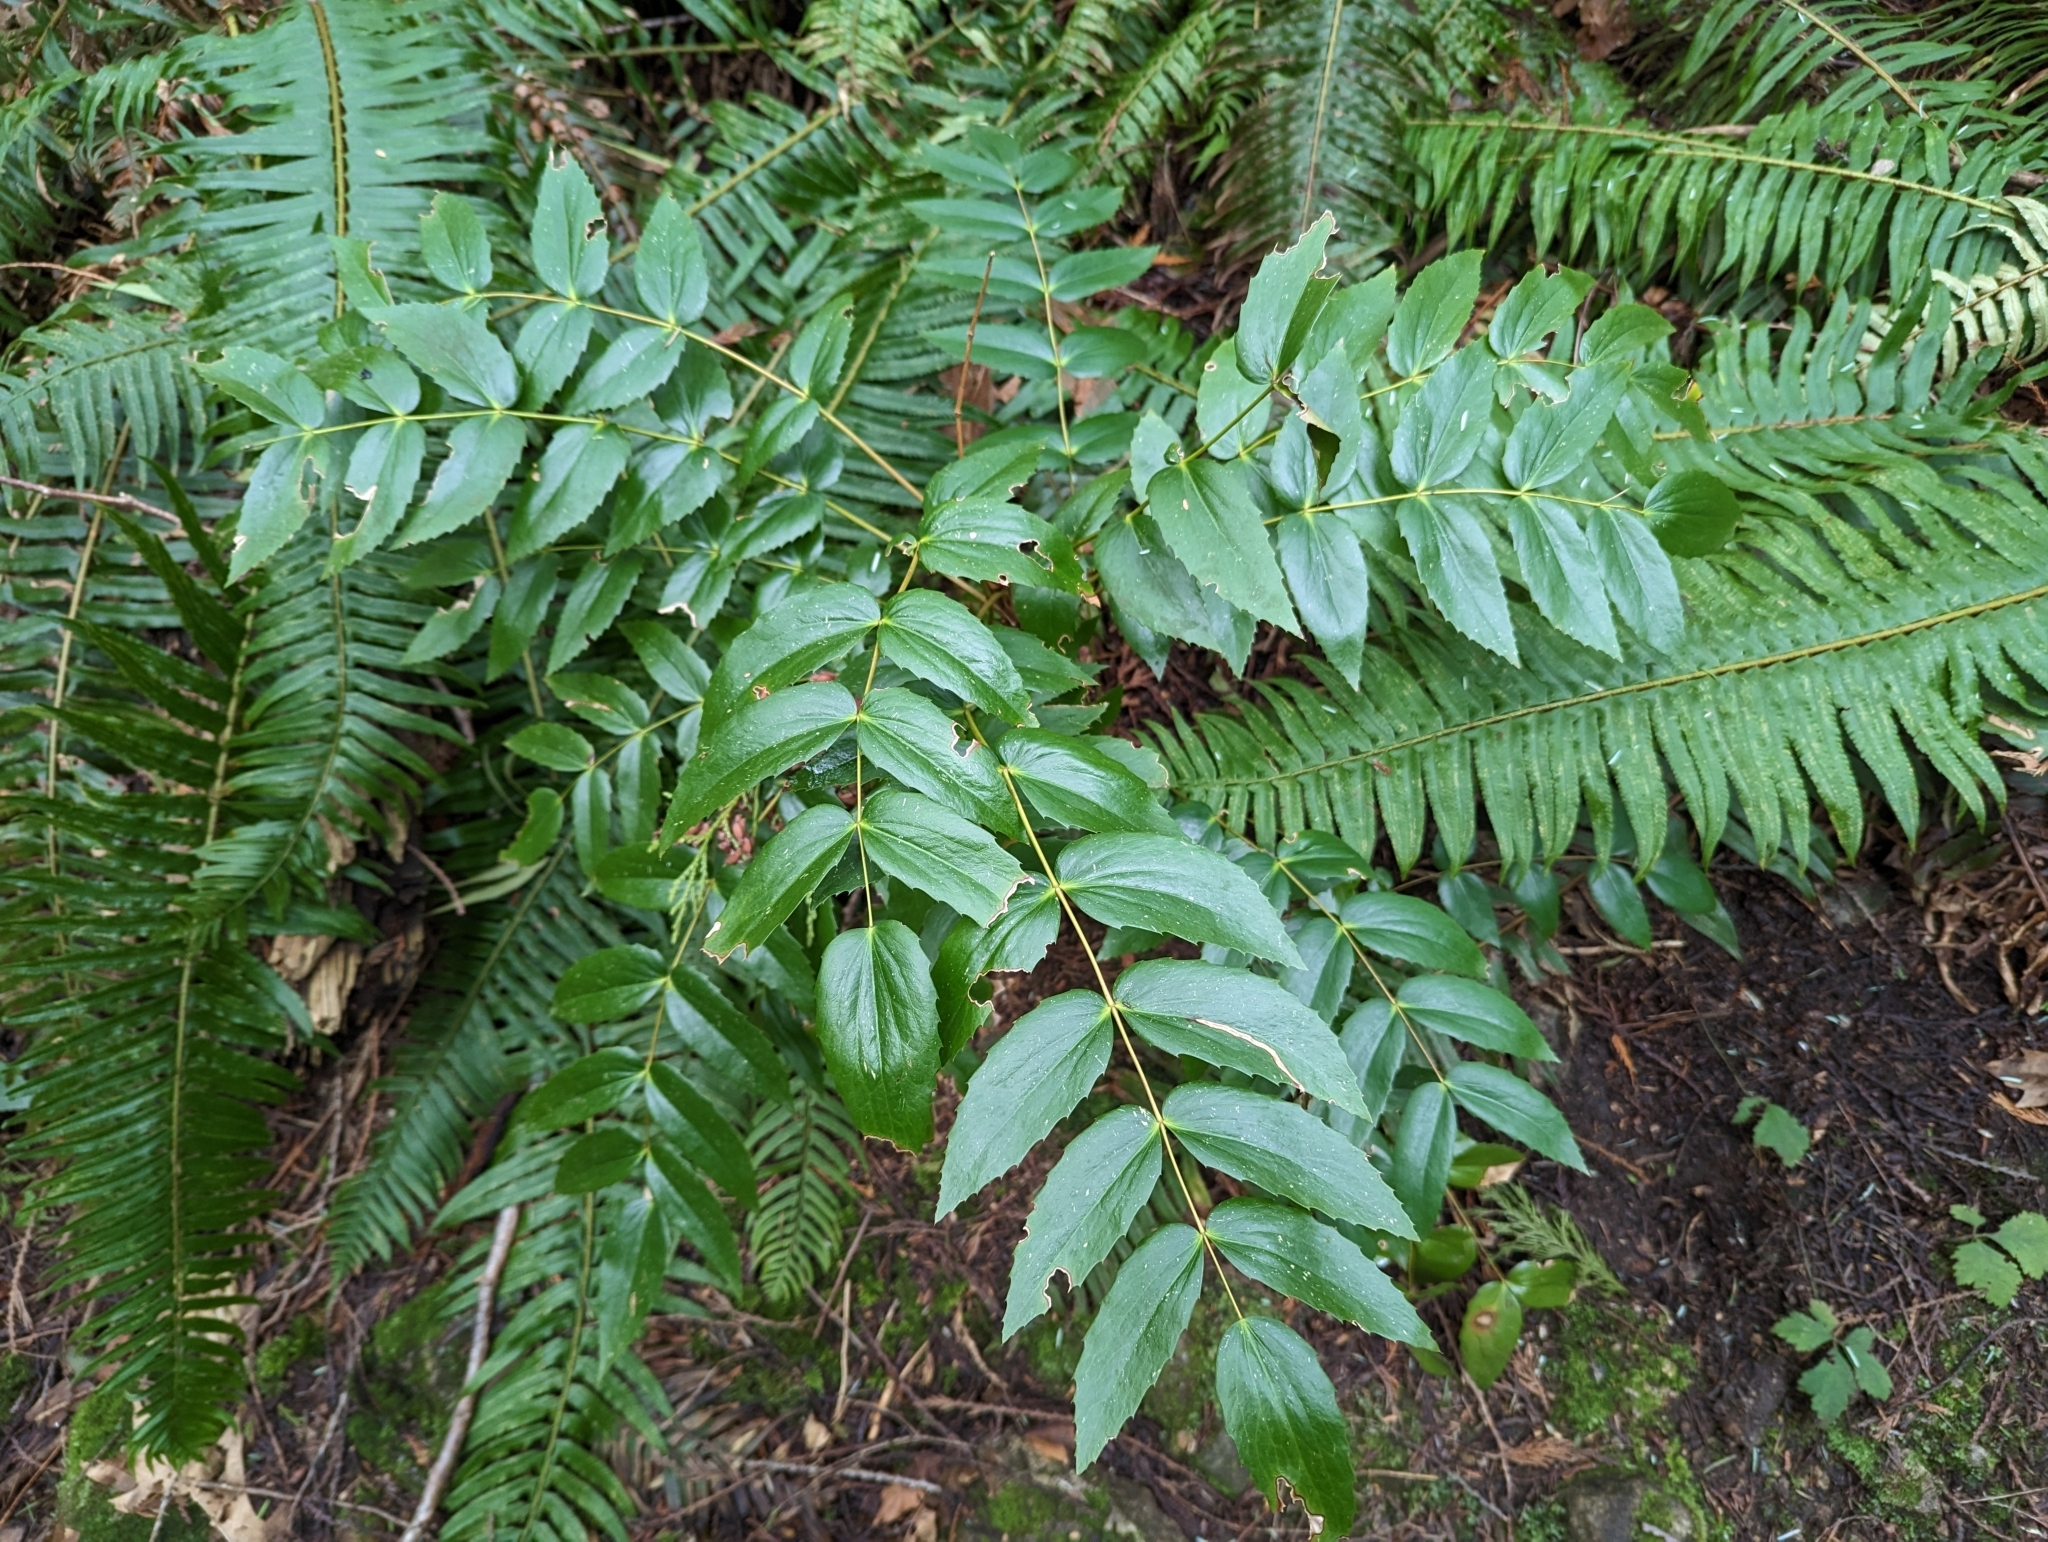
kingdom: Plantae
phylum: Tracheophyta
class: Magnoliopsida
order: Ranunculales
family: Berberidaceae
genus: Mahonia
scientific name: Mahonia nervosa
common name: Cascade oregon-grape
